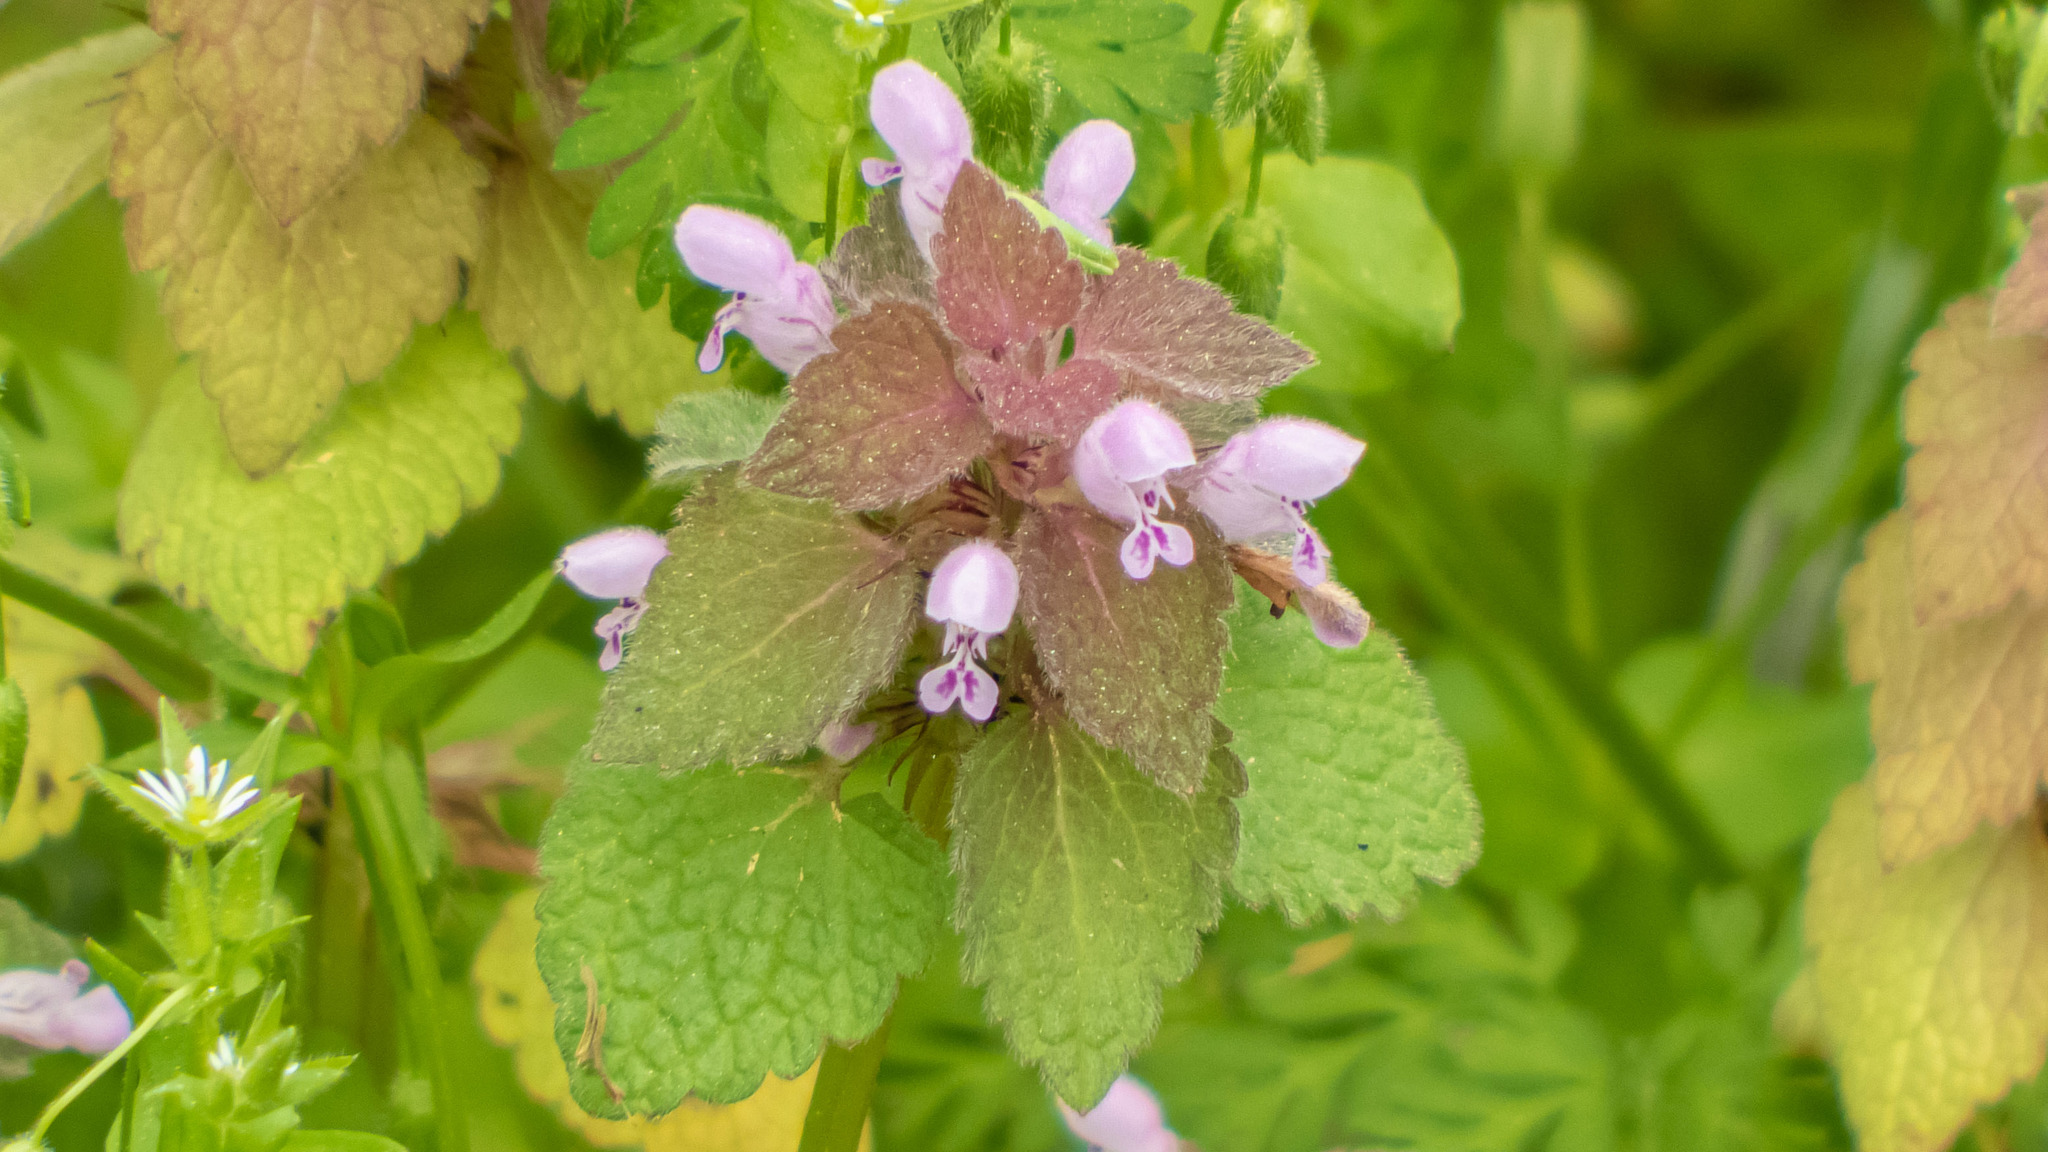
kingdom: Plantae
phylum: Tracheophyta
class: Magnoliopsida
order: Lamiales
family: Lamiaceae
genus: Lamium
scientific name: Lamium purpureum
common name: Red dead-nettle
